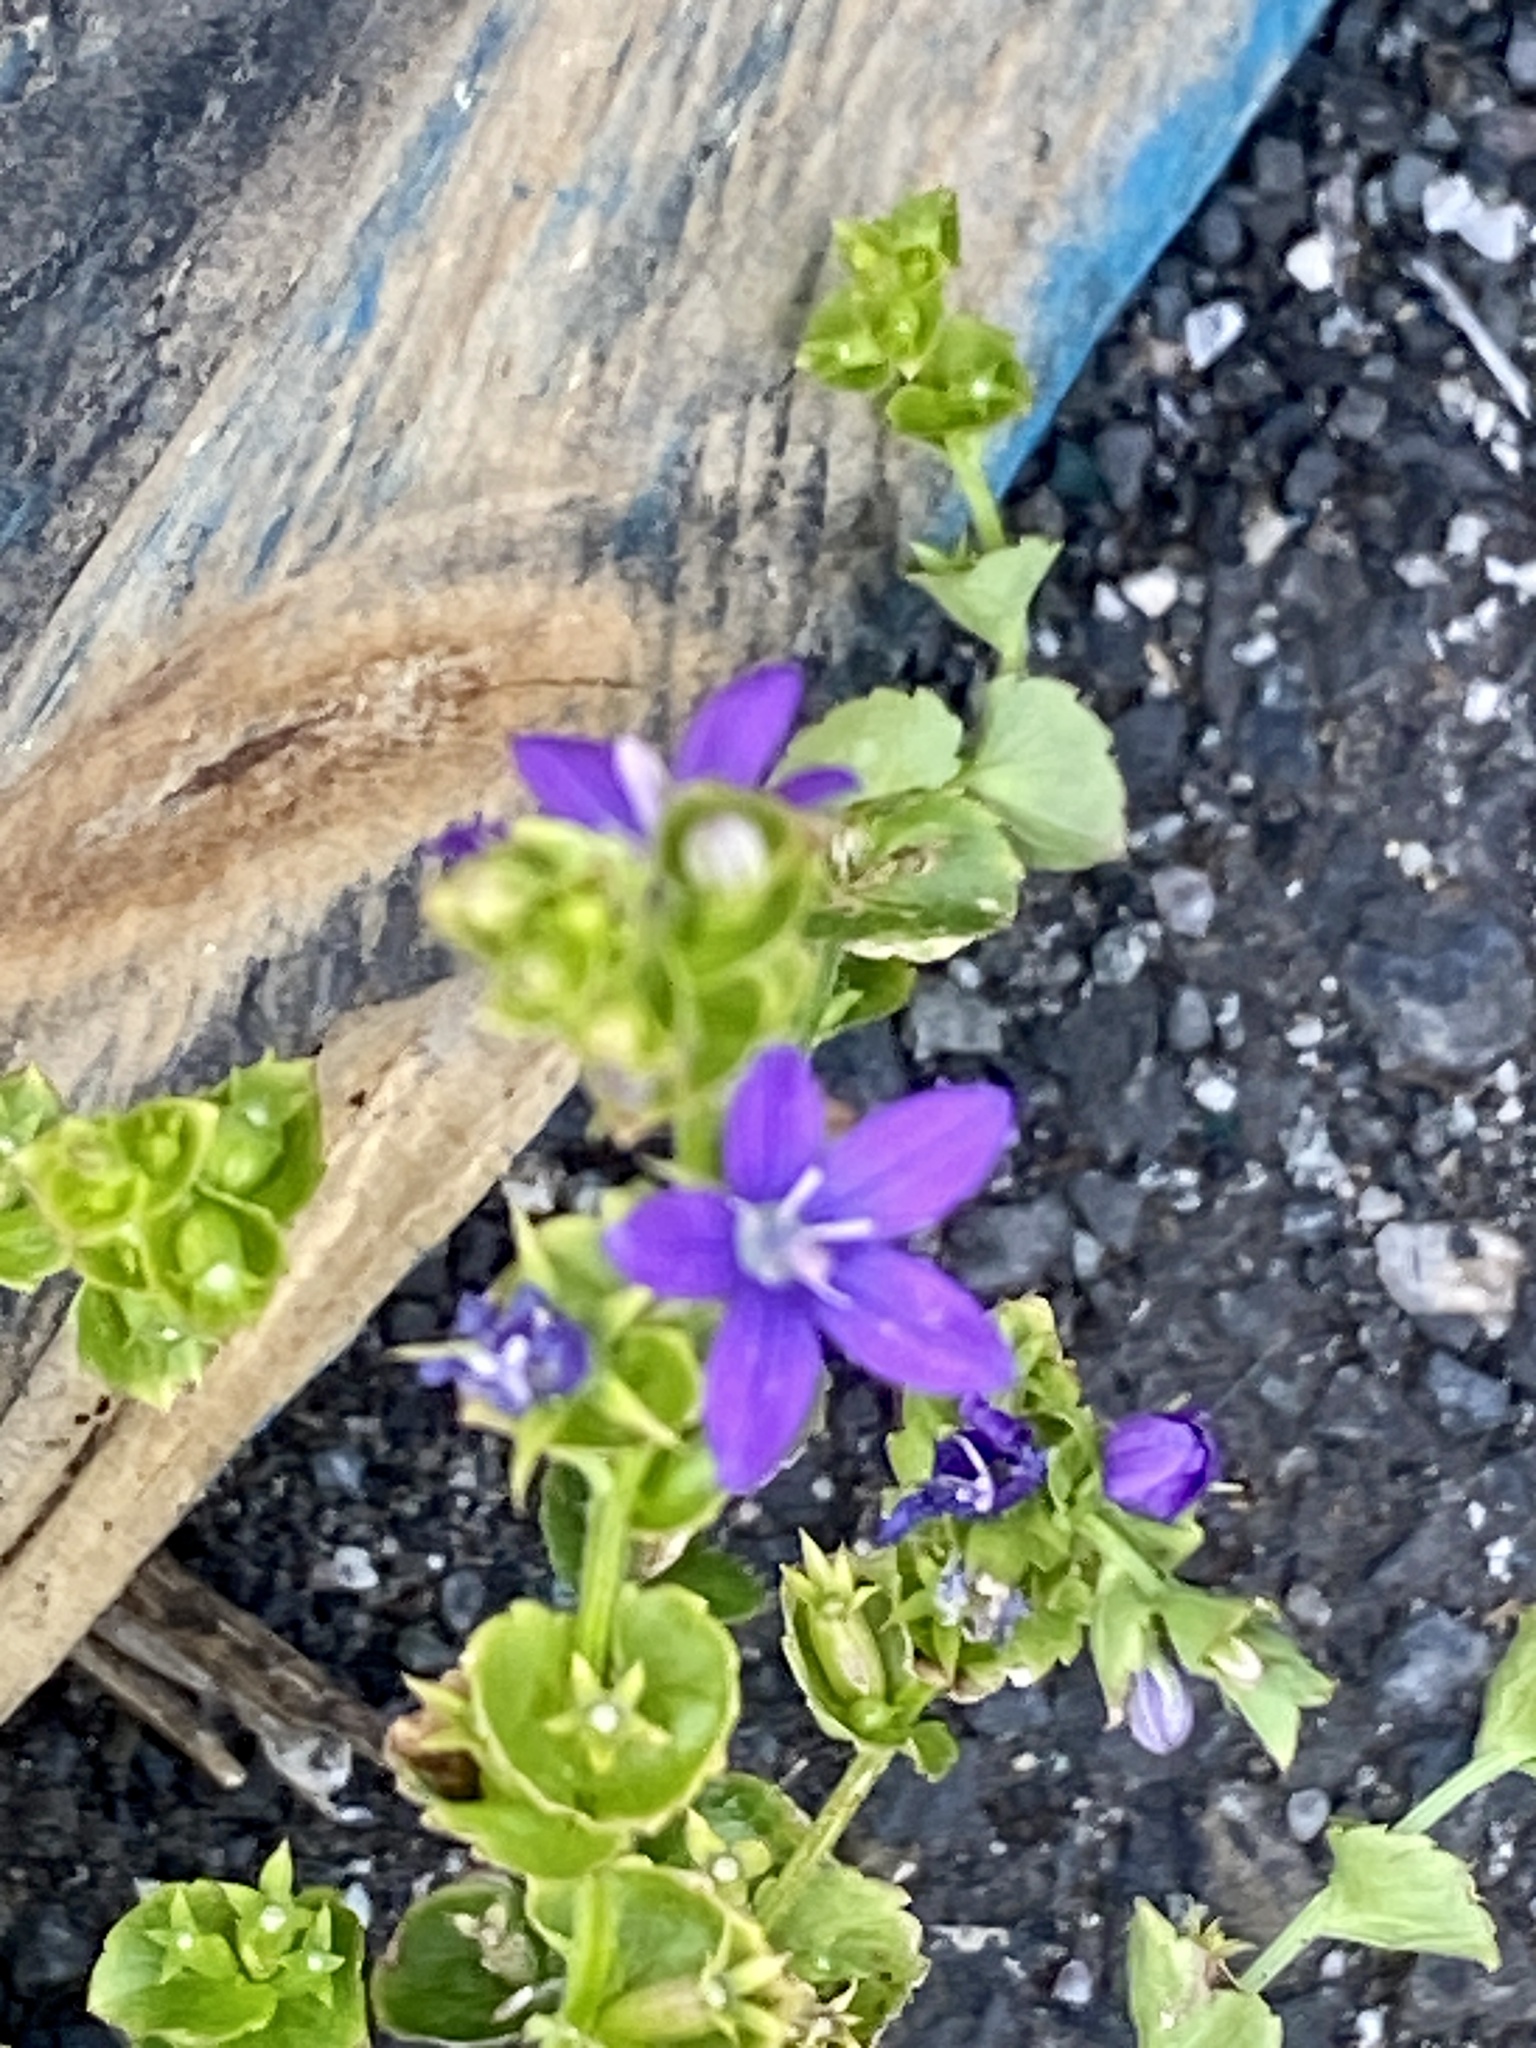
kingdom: Plantae
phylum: Tracheophyta
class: Magnoliopsida
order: Asterales
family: Campanulaceae
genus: Triodanis
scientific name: Triodanis perfoliata
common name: Clasping venus' looking-glass
